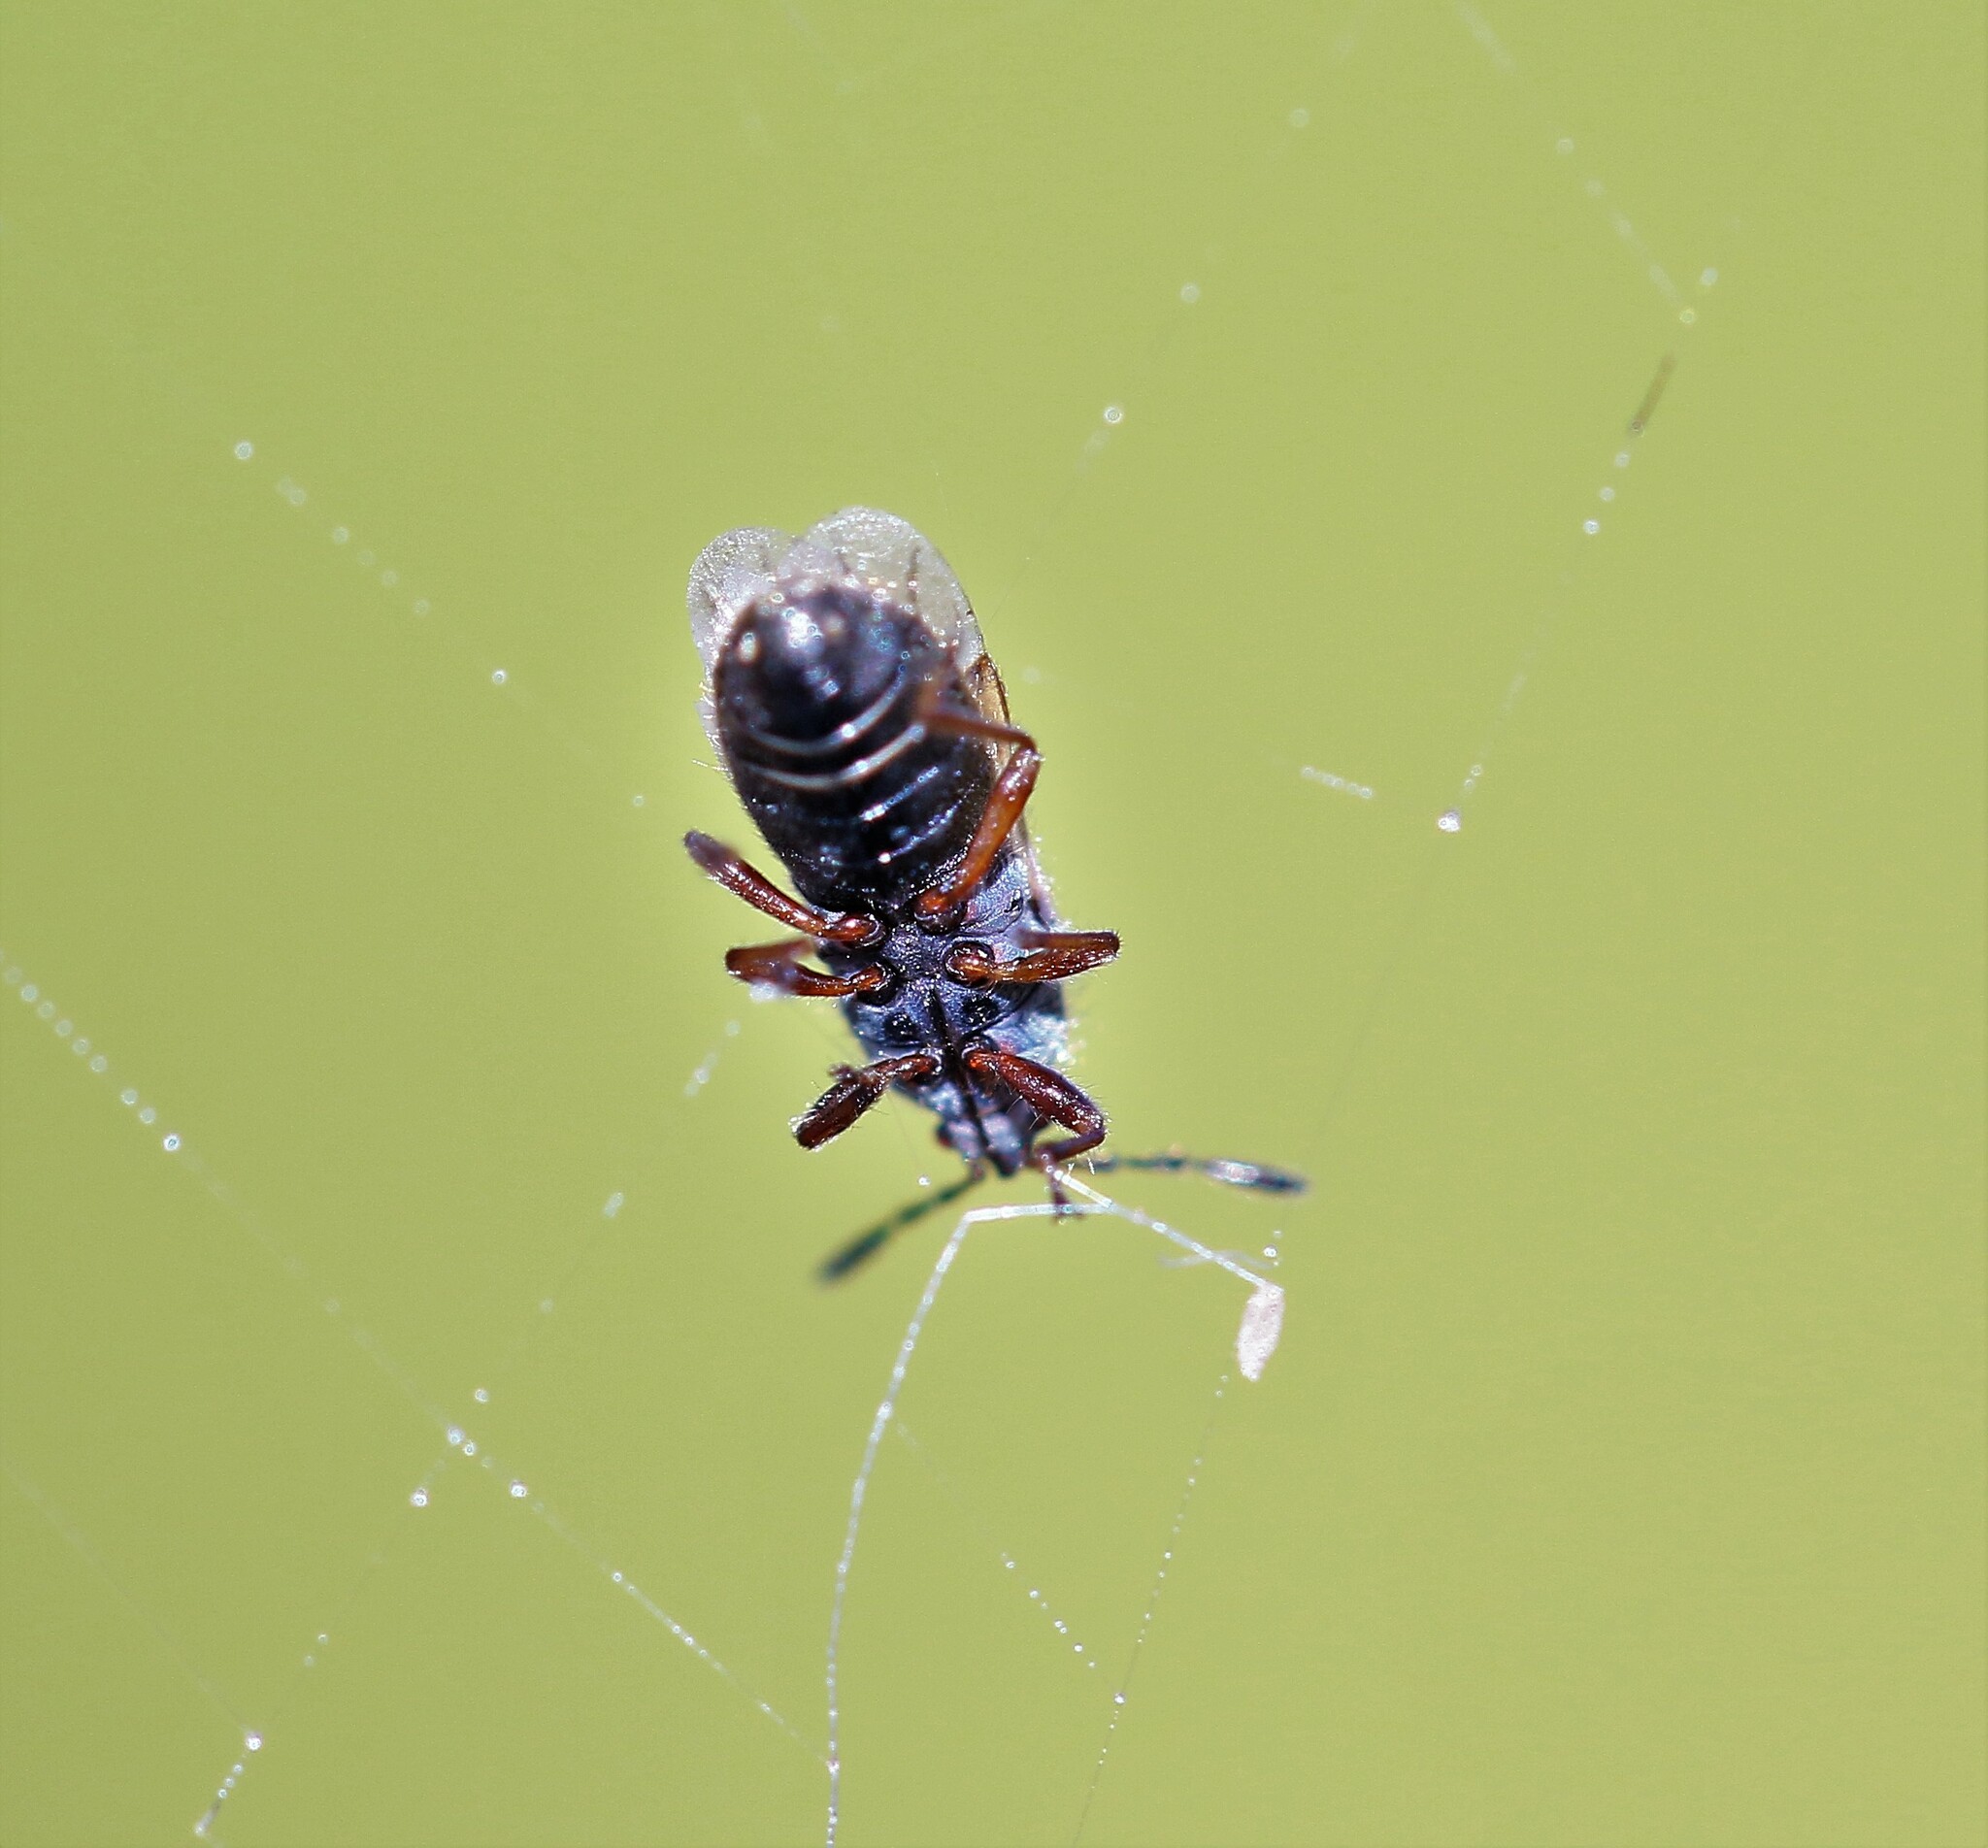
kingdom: Animalia
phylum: Arthropoda
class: Insecta
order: Hemiptera
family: Blissidae
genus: Blissus
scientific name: Blissus leucopterus
